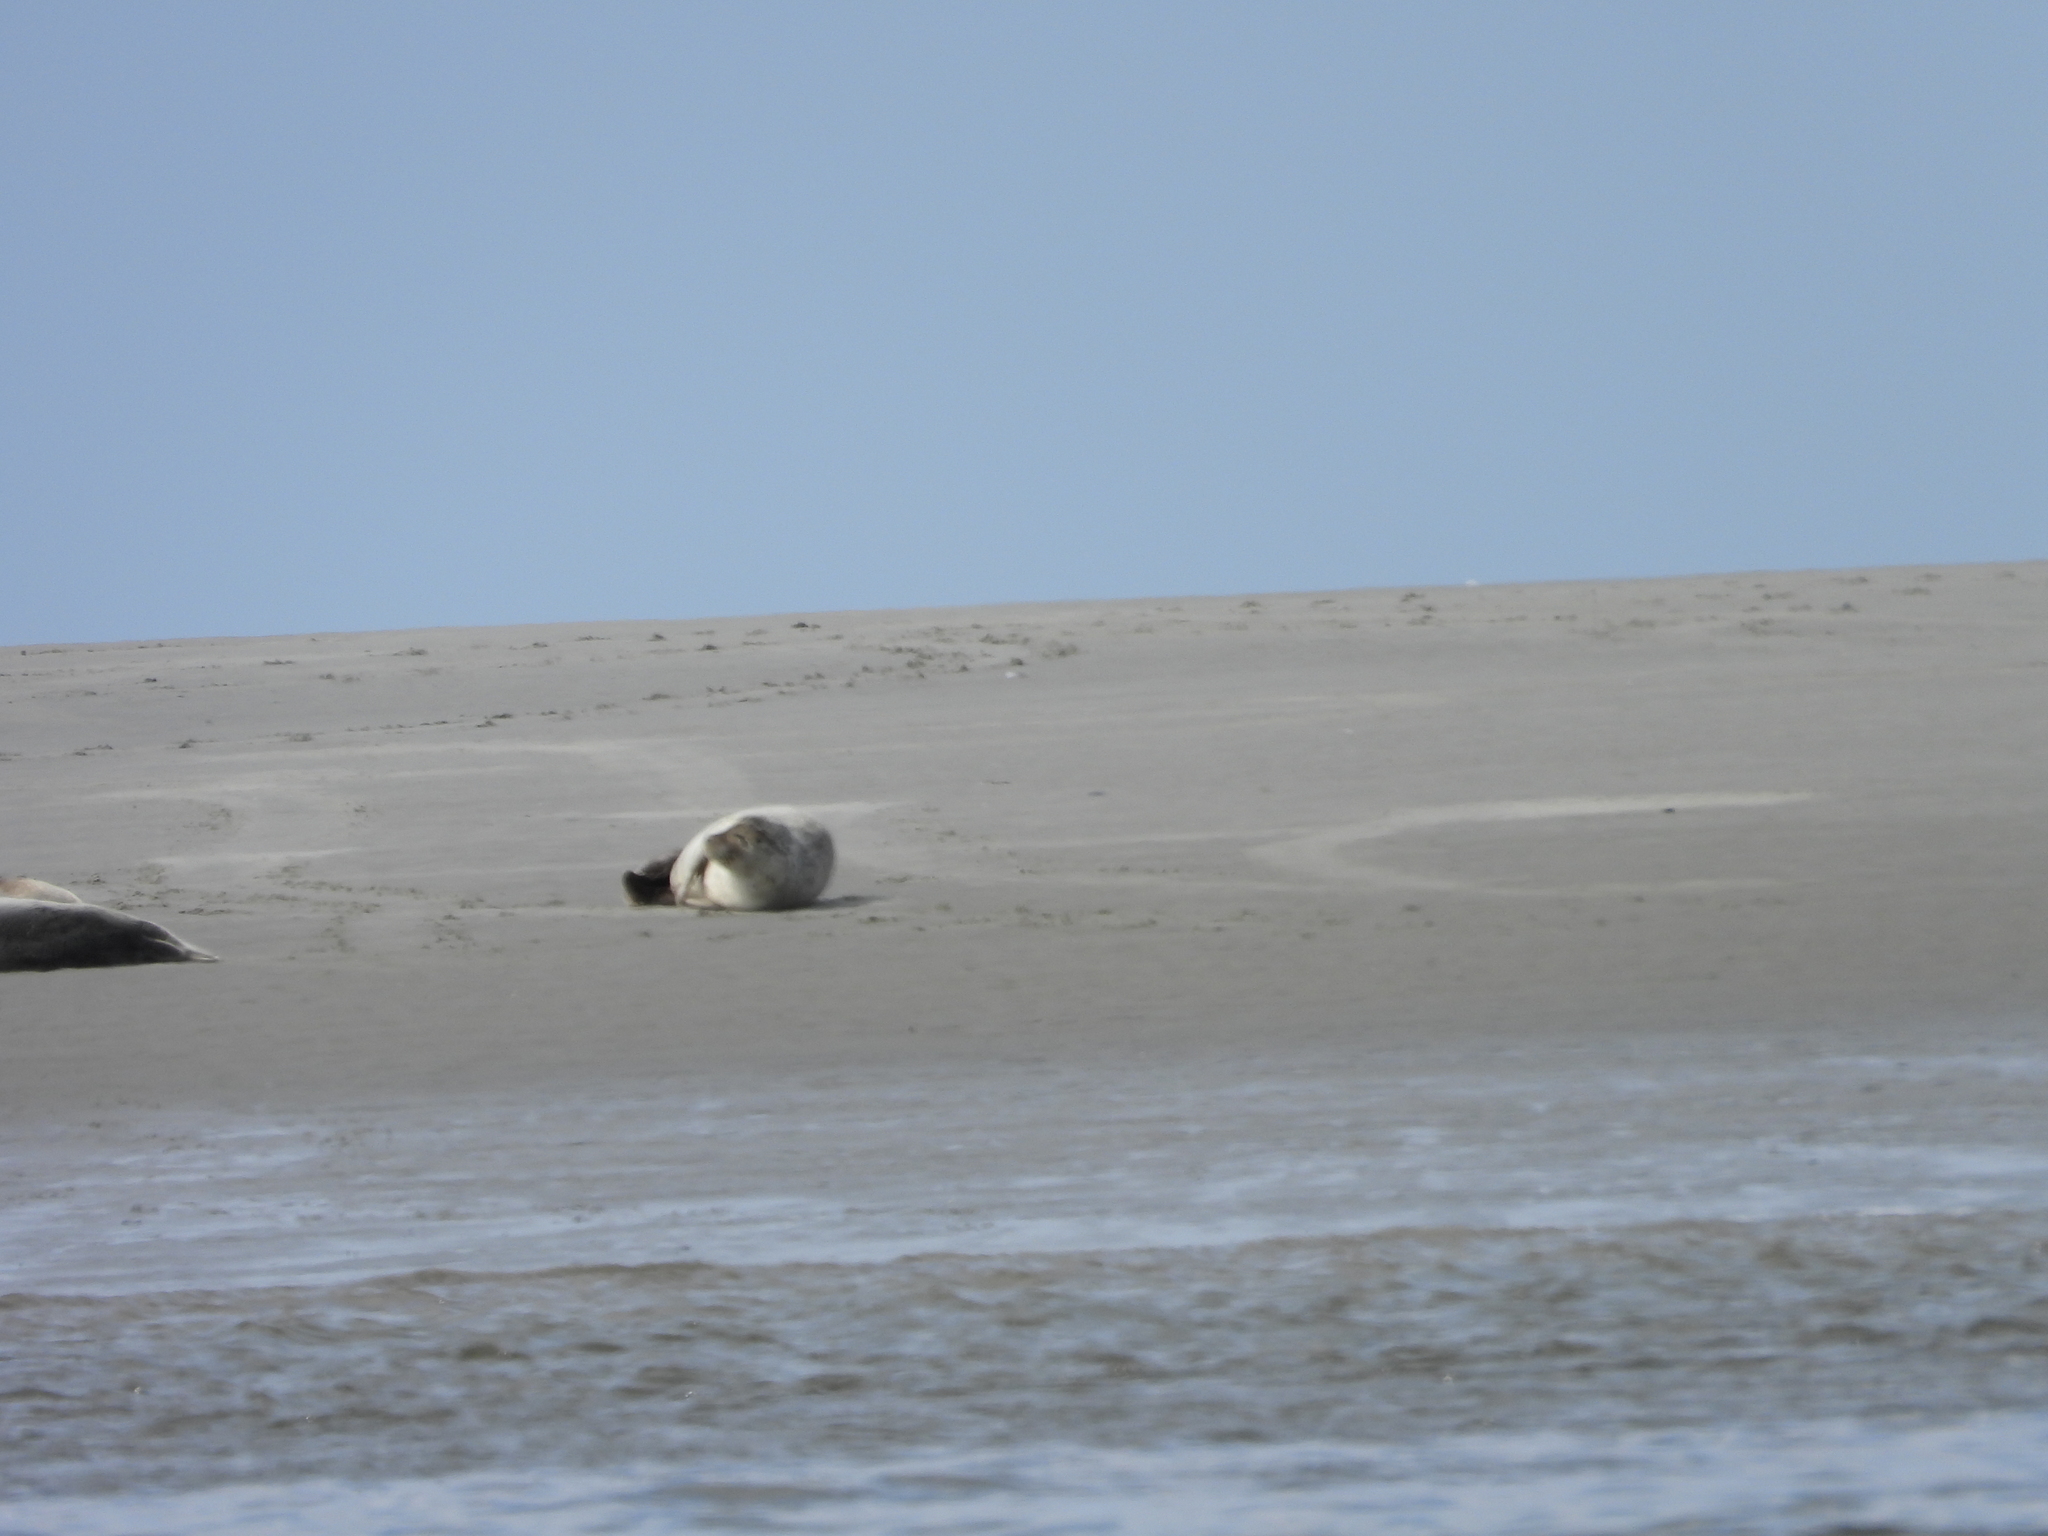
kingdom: Animalia
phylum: Chordata
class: Mammalia
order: Carnivora
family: Phocidae
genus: Phoca
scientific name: Phoca vitulina
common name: Harbor seal
